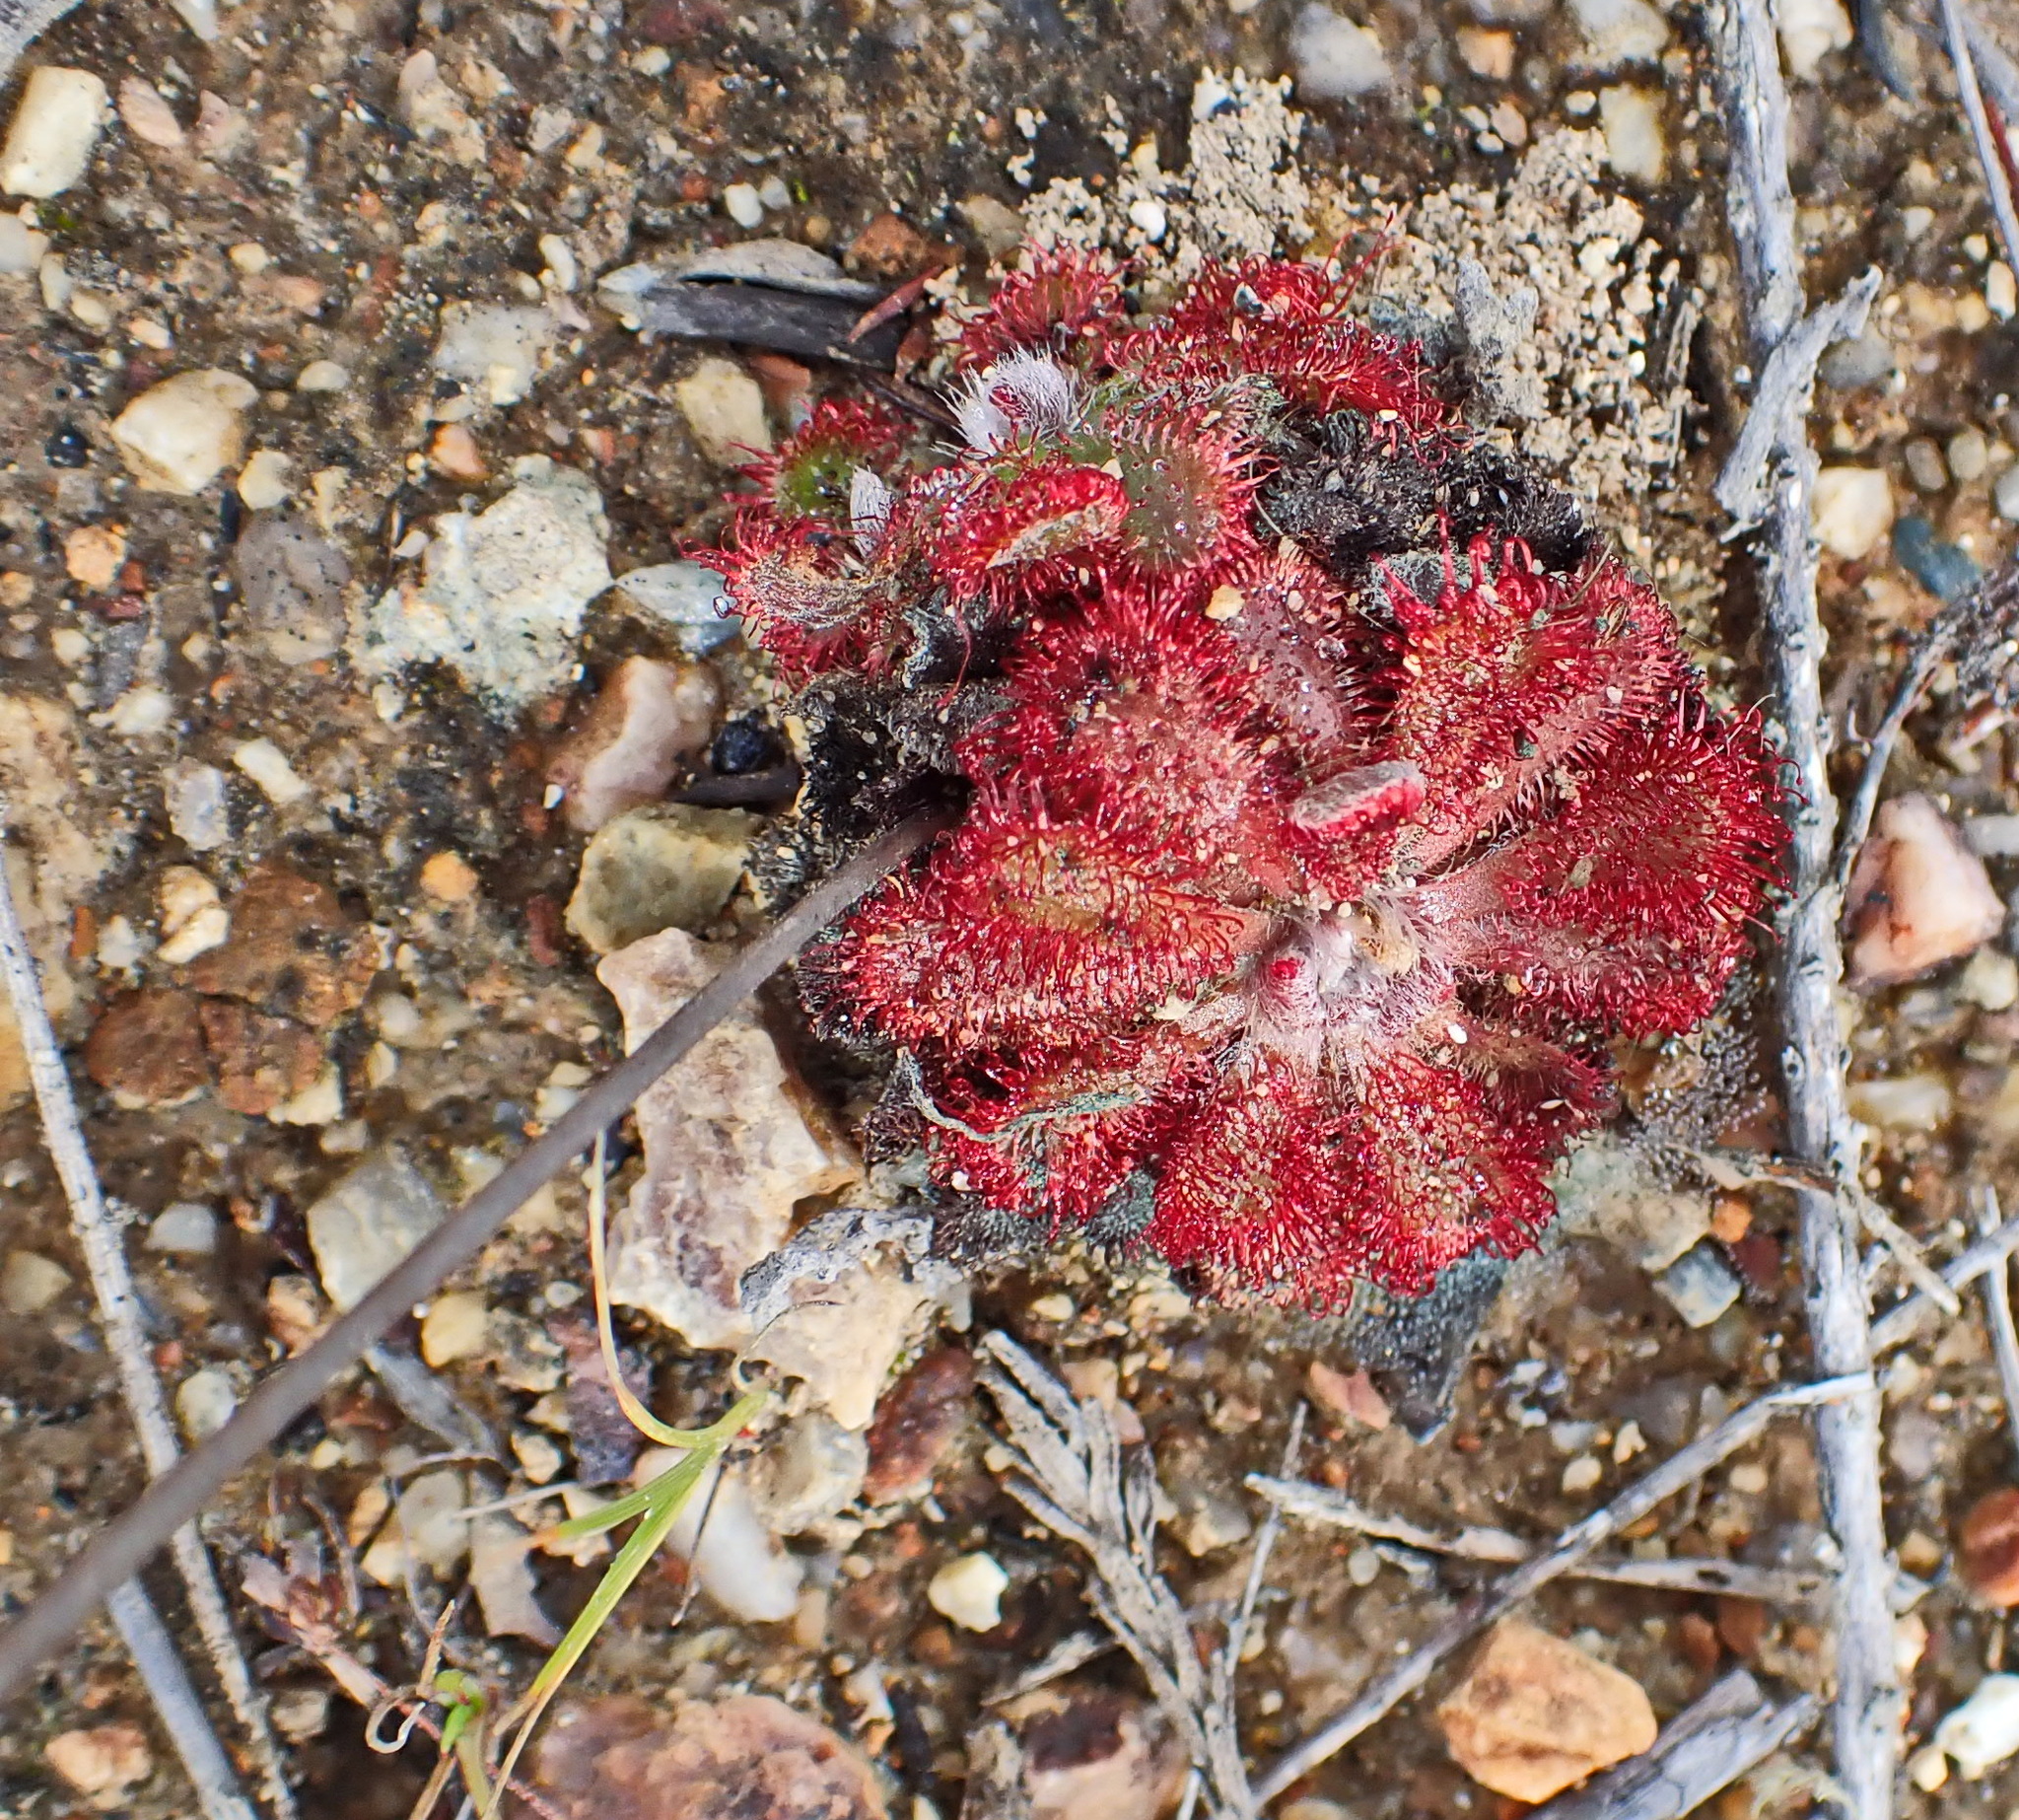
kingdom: Plantae
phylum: Tracheophyta
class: Magnoliopsida
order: Caryophyllales
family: Droseraceae
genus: Drosera
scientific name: Drosera aliciae
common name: Alice sundew
